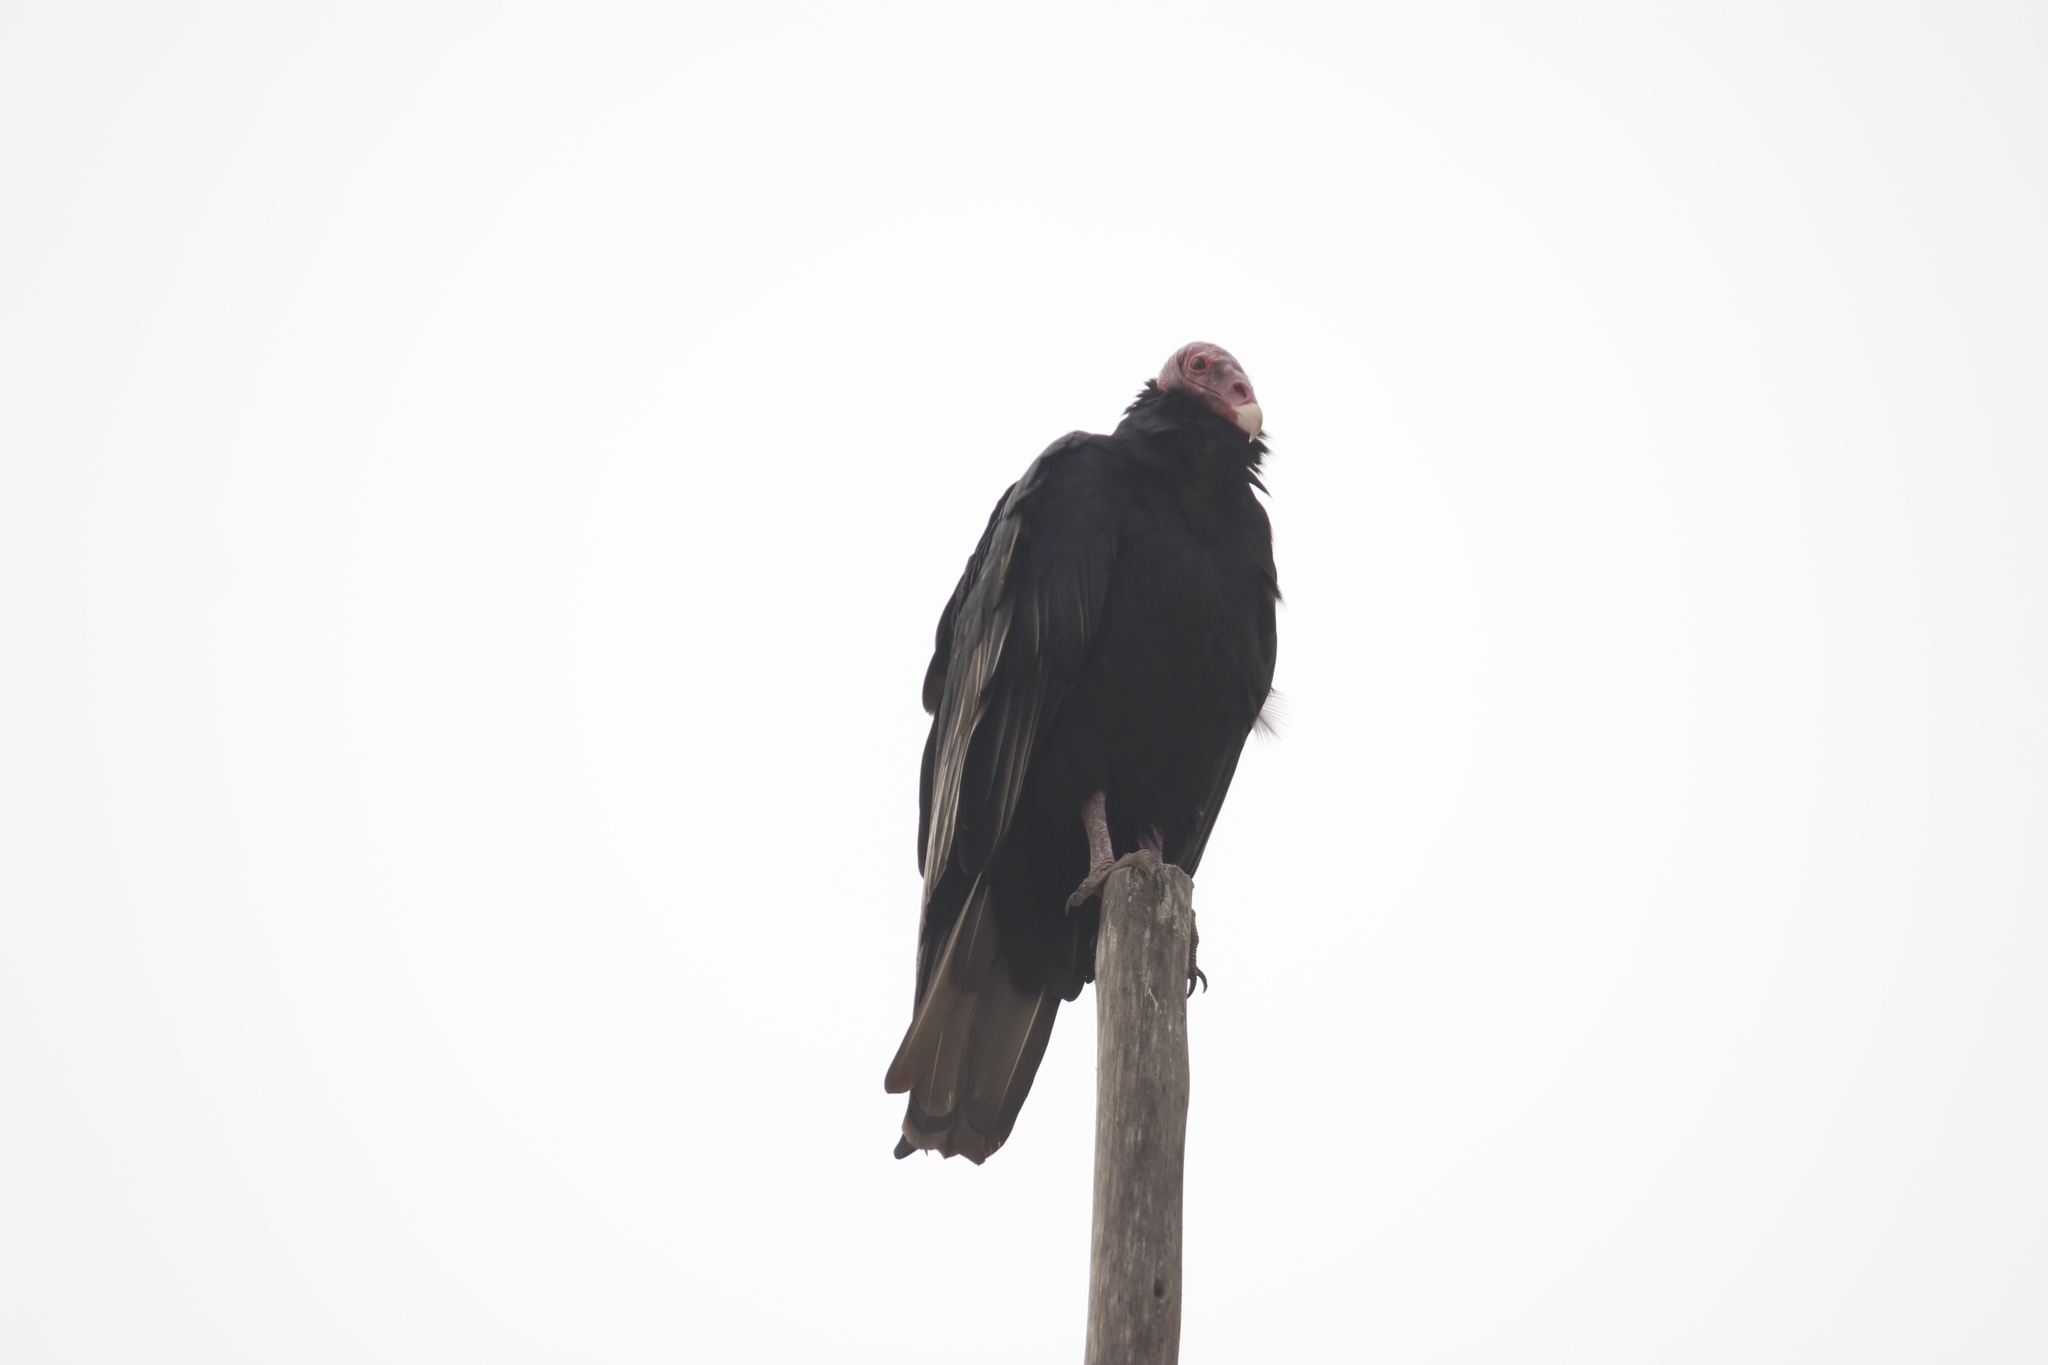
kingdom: Animalia
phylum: Chordata
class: Aves
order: Accipitriformes
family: Cathartidae
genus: Cathartes
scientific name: Cathartes aura
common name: Turkey vulture
